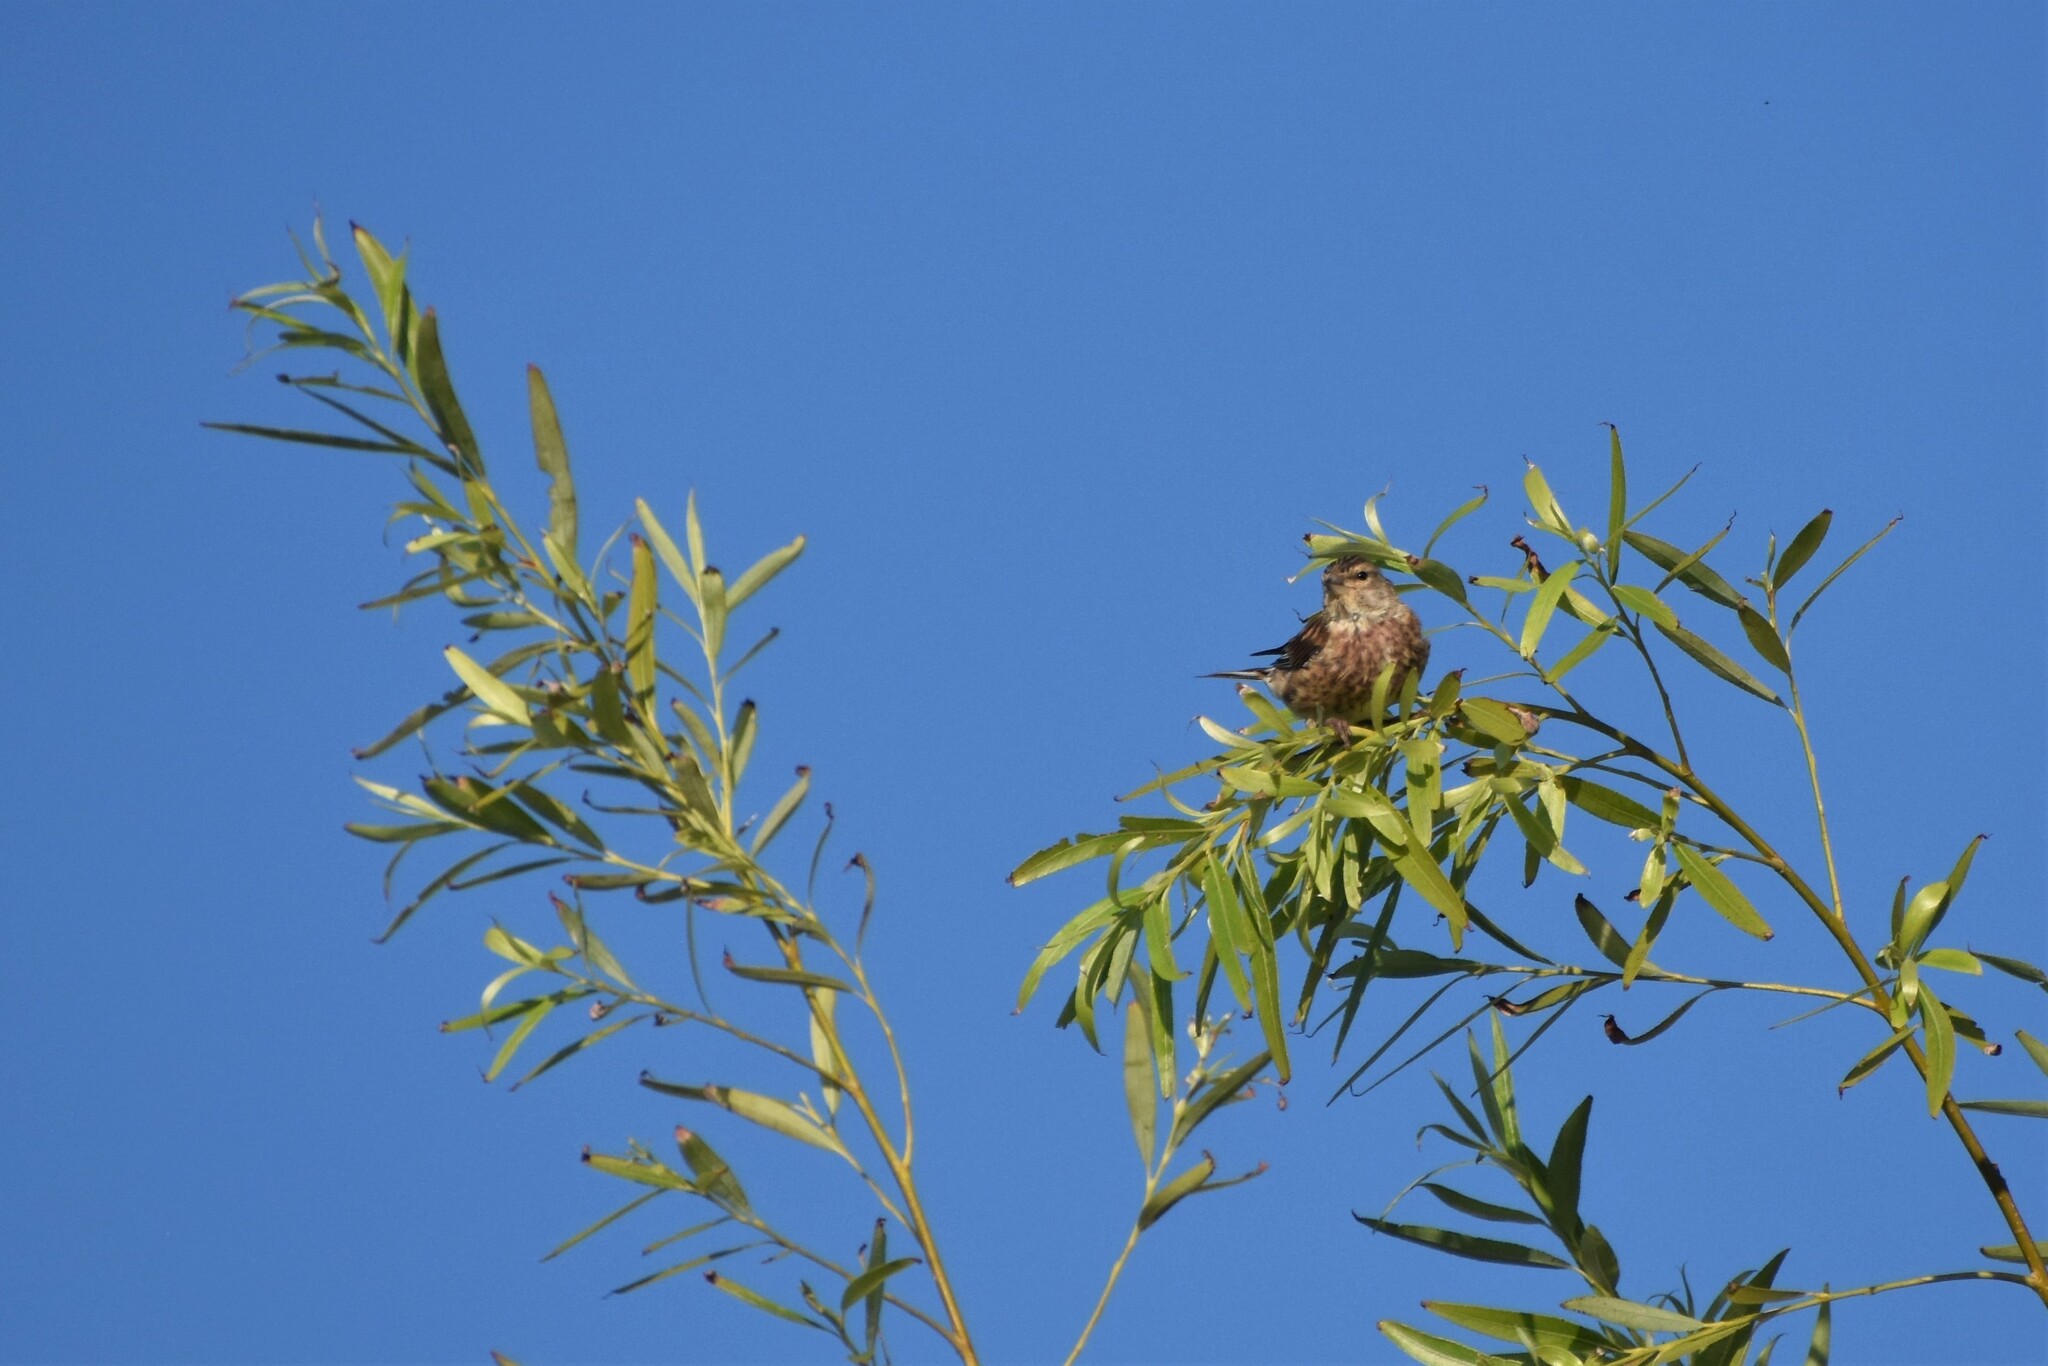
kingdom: Animalia
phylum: Chordata
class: Aves
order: Passeriformes
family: Fringillidae
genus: Linaria
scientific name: Linaria cannabina
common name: Common linnet
